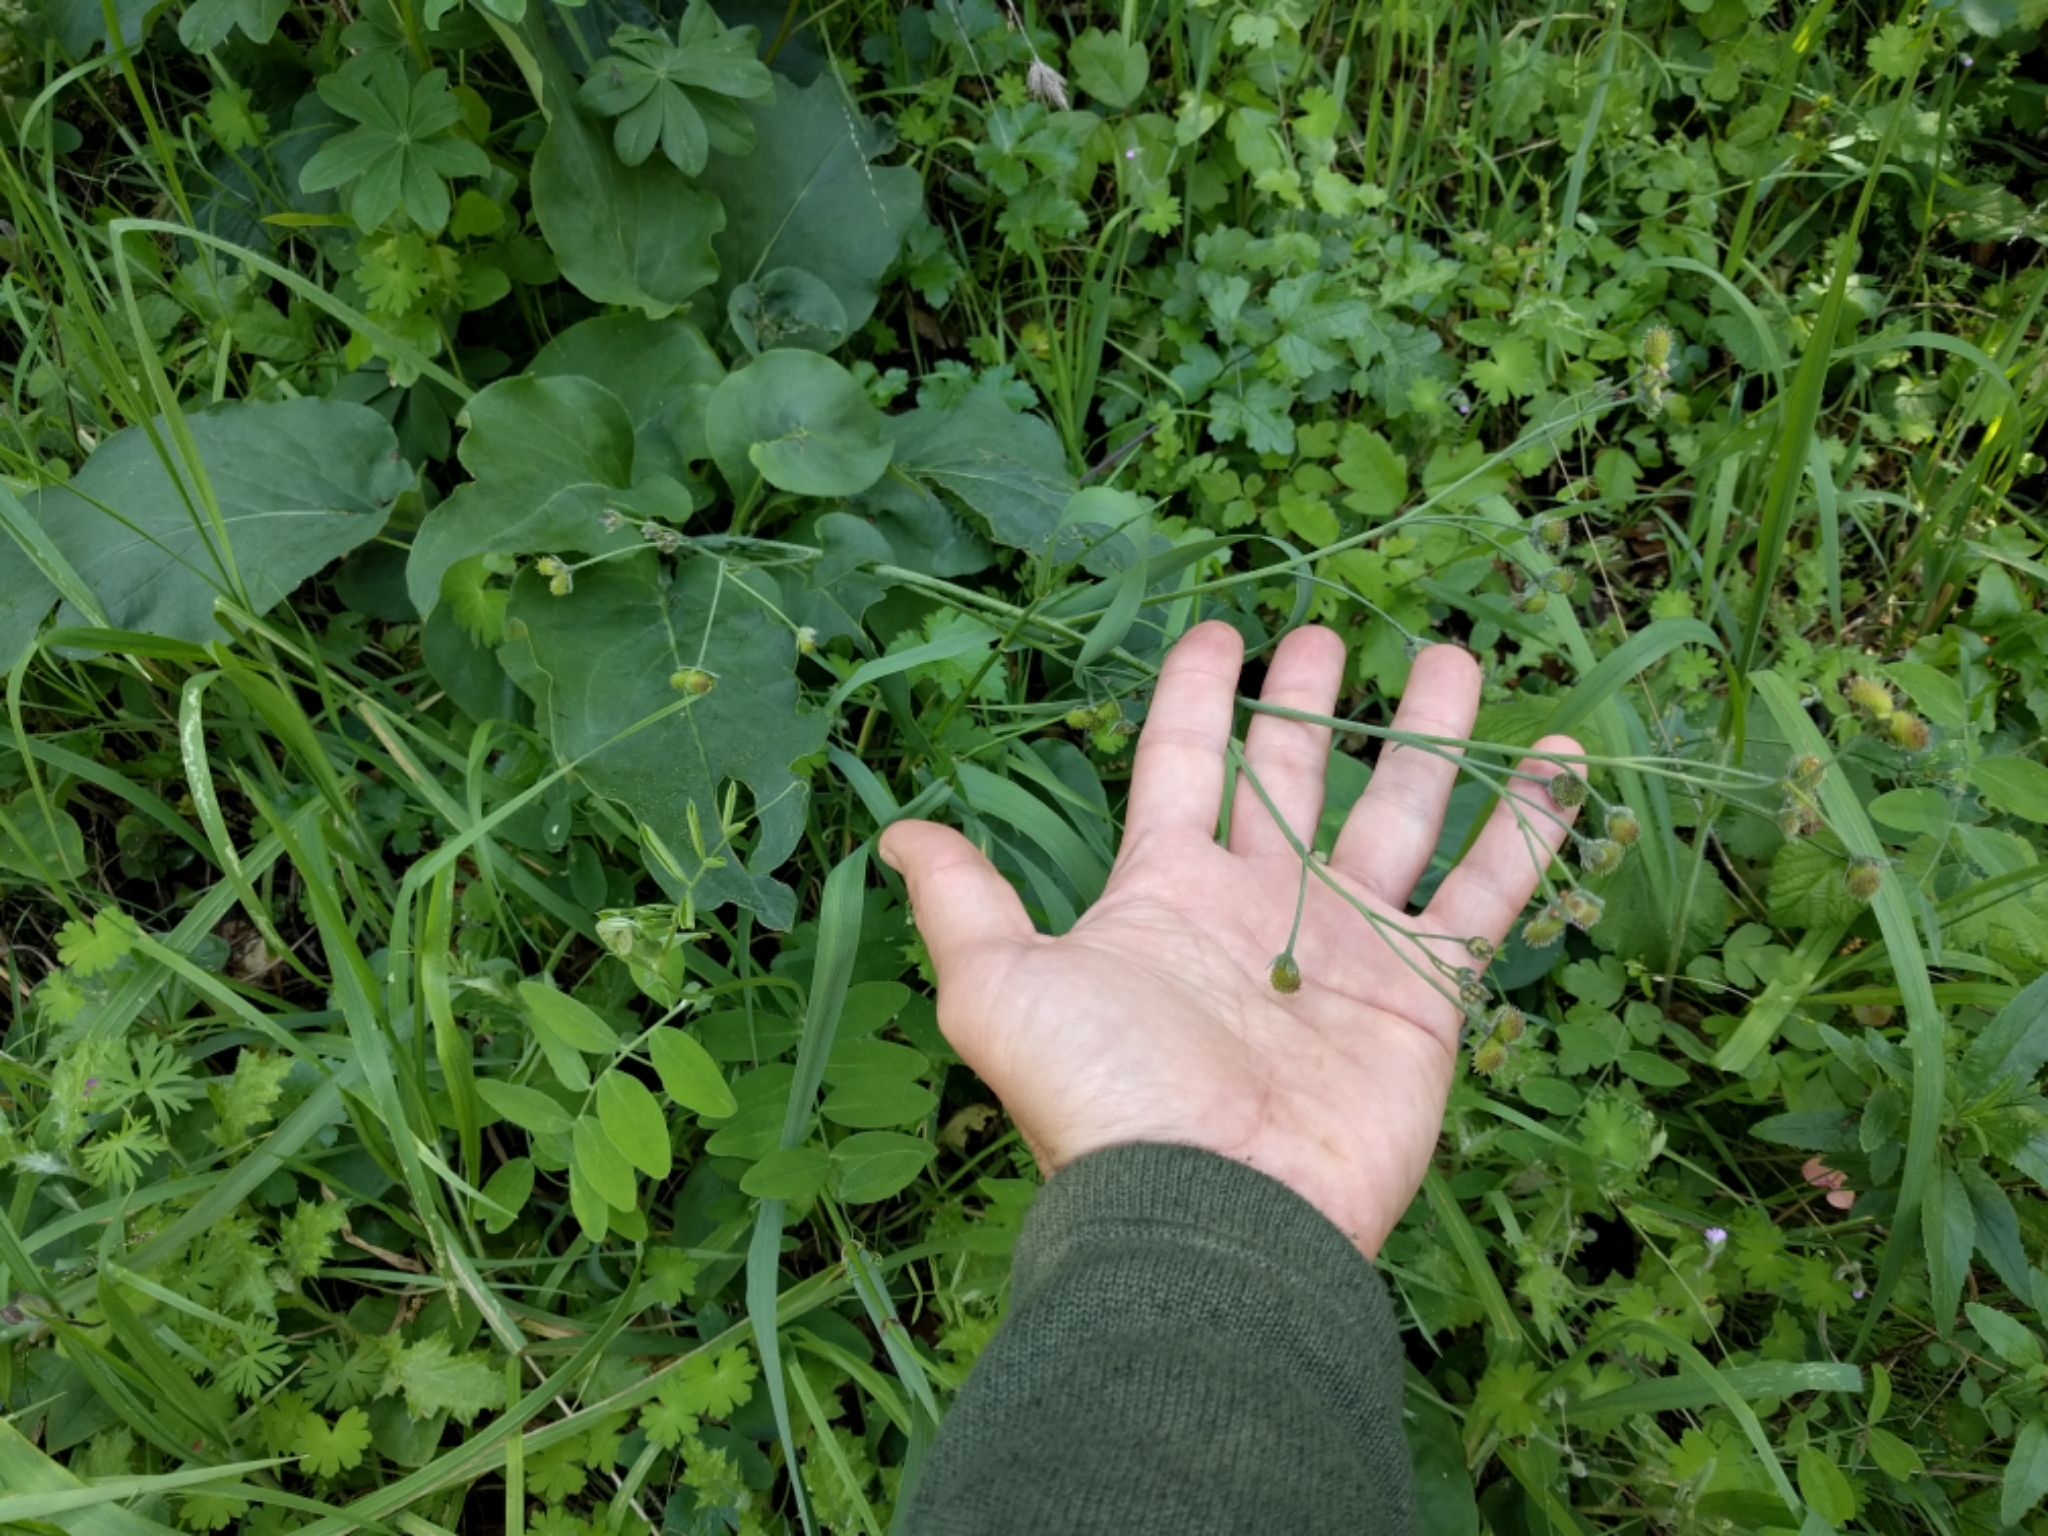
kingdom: Plantae
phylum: Tracheophyta
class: Magnoliopsida
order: Boraginales
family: Boraginaceae
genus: Adelinia
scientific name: Adelinia grande
